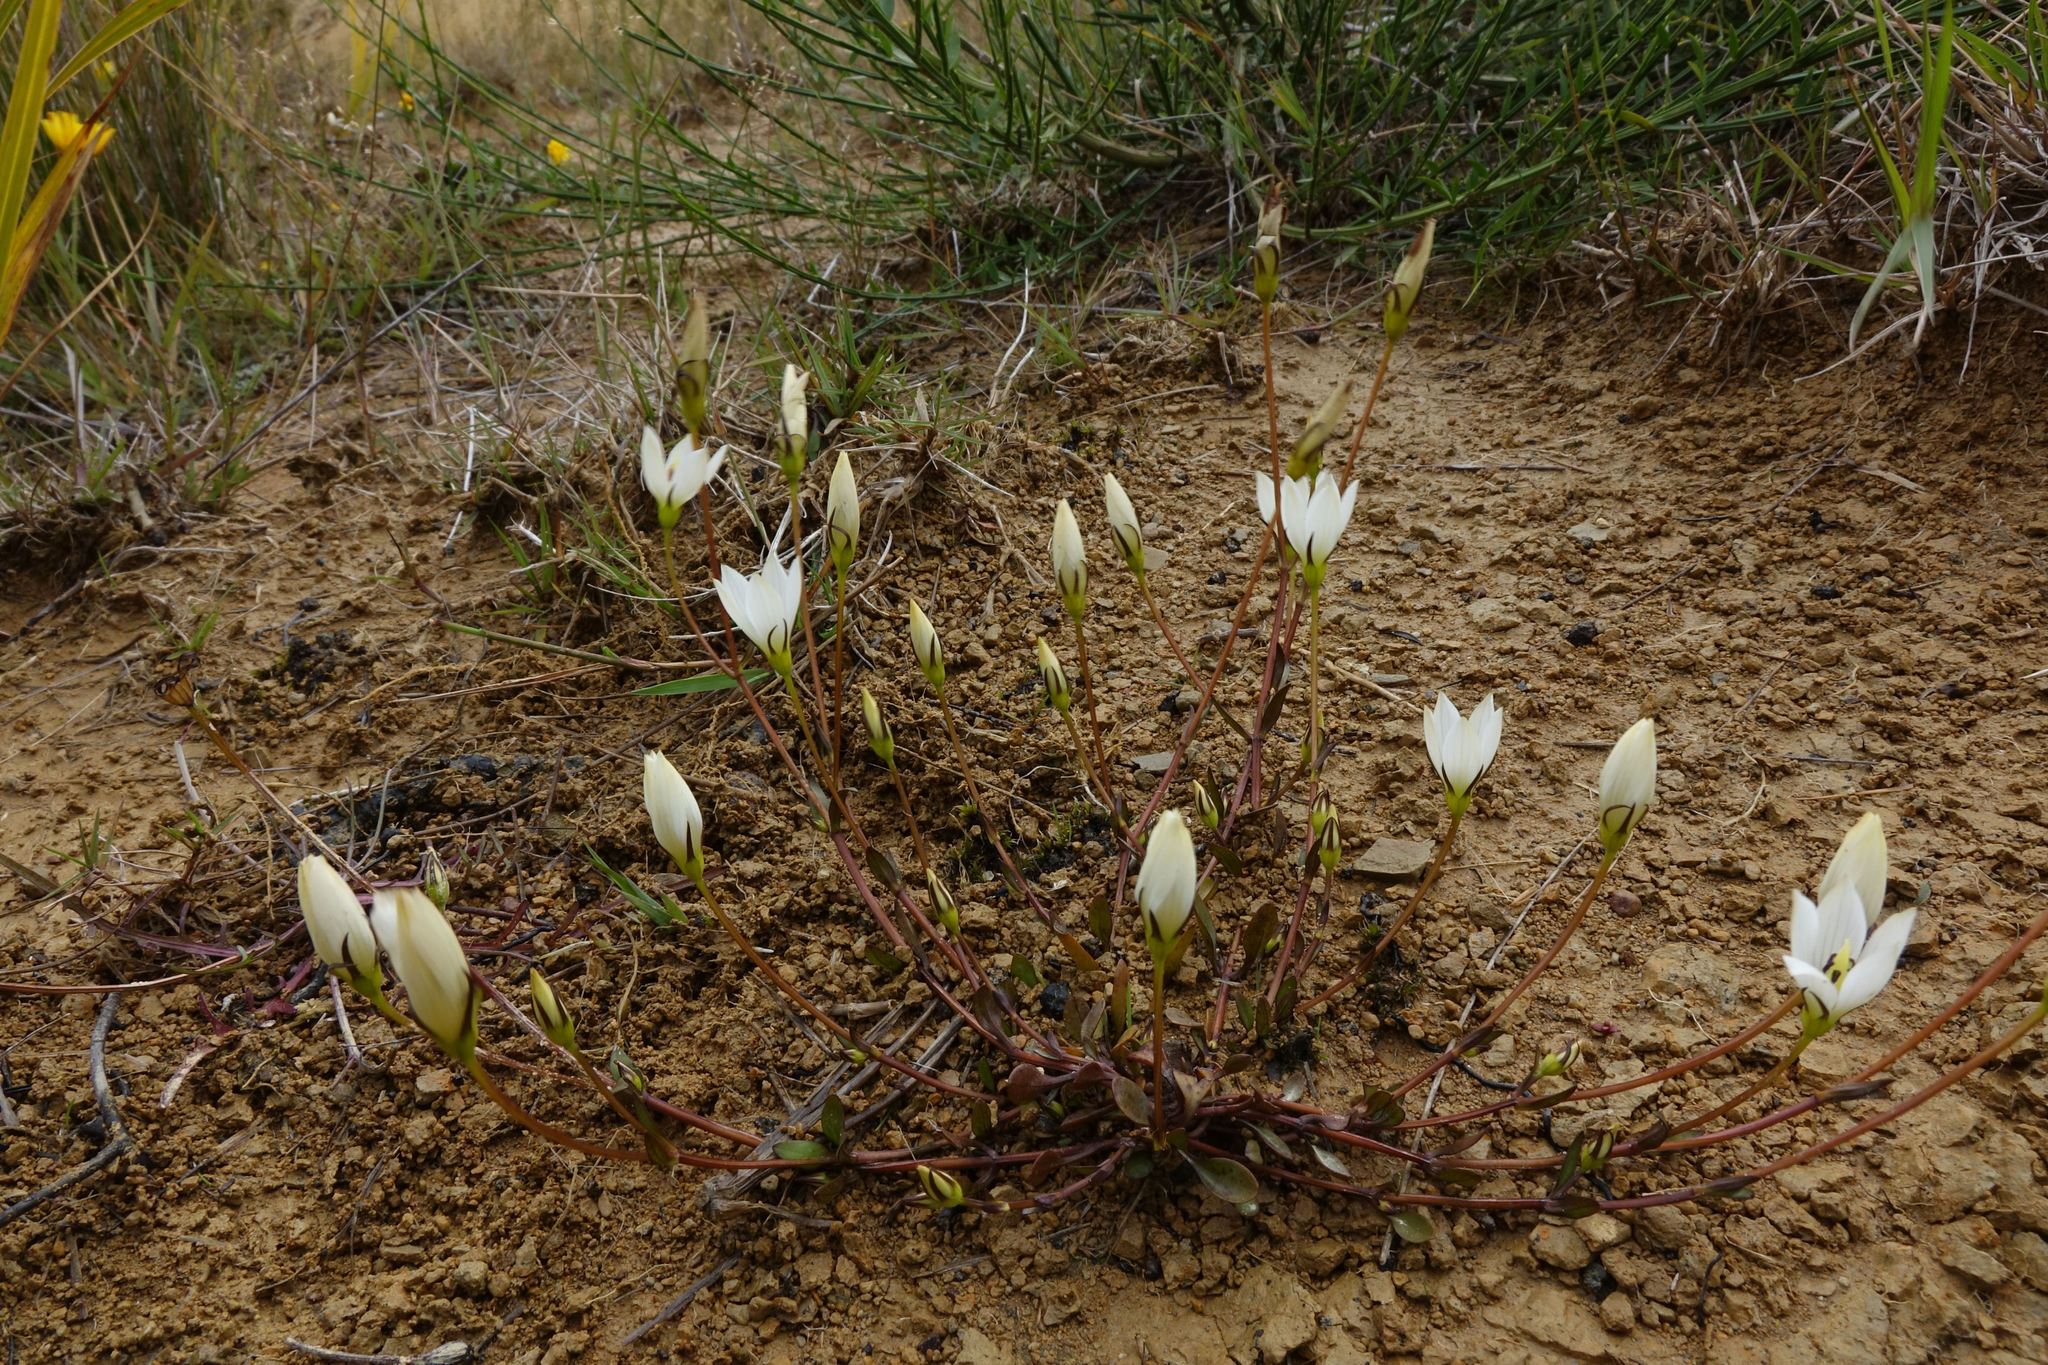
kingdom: Plantae
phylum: Tracheophyta
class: Magnoliopsida
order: Gentianales
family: Gentianaceae
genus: Gentianella
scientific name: Gentianella grisebachii
